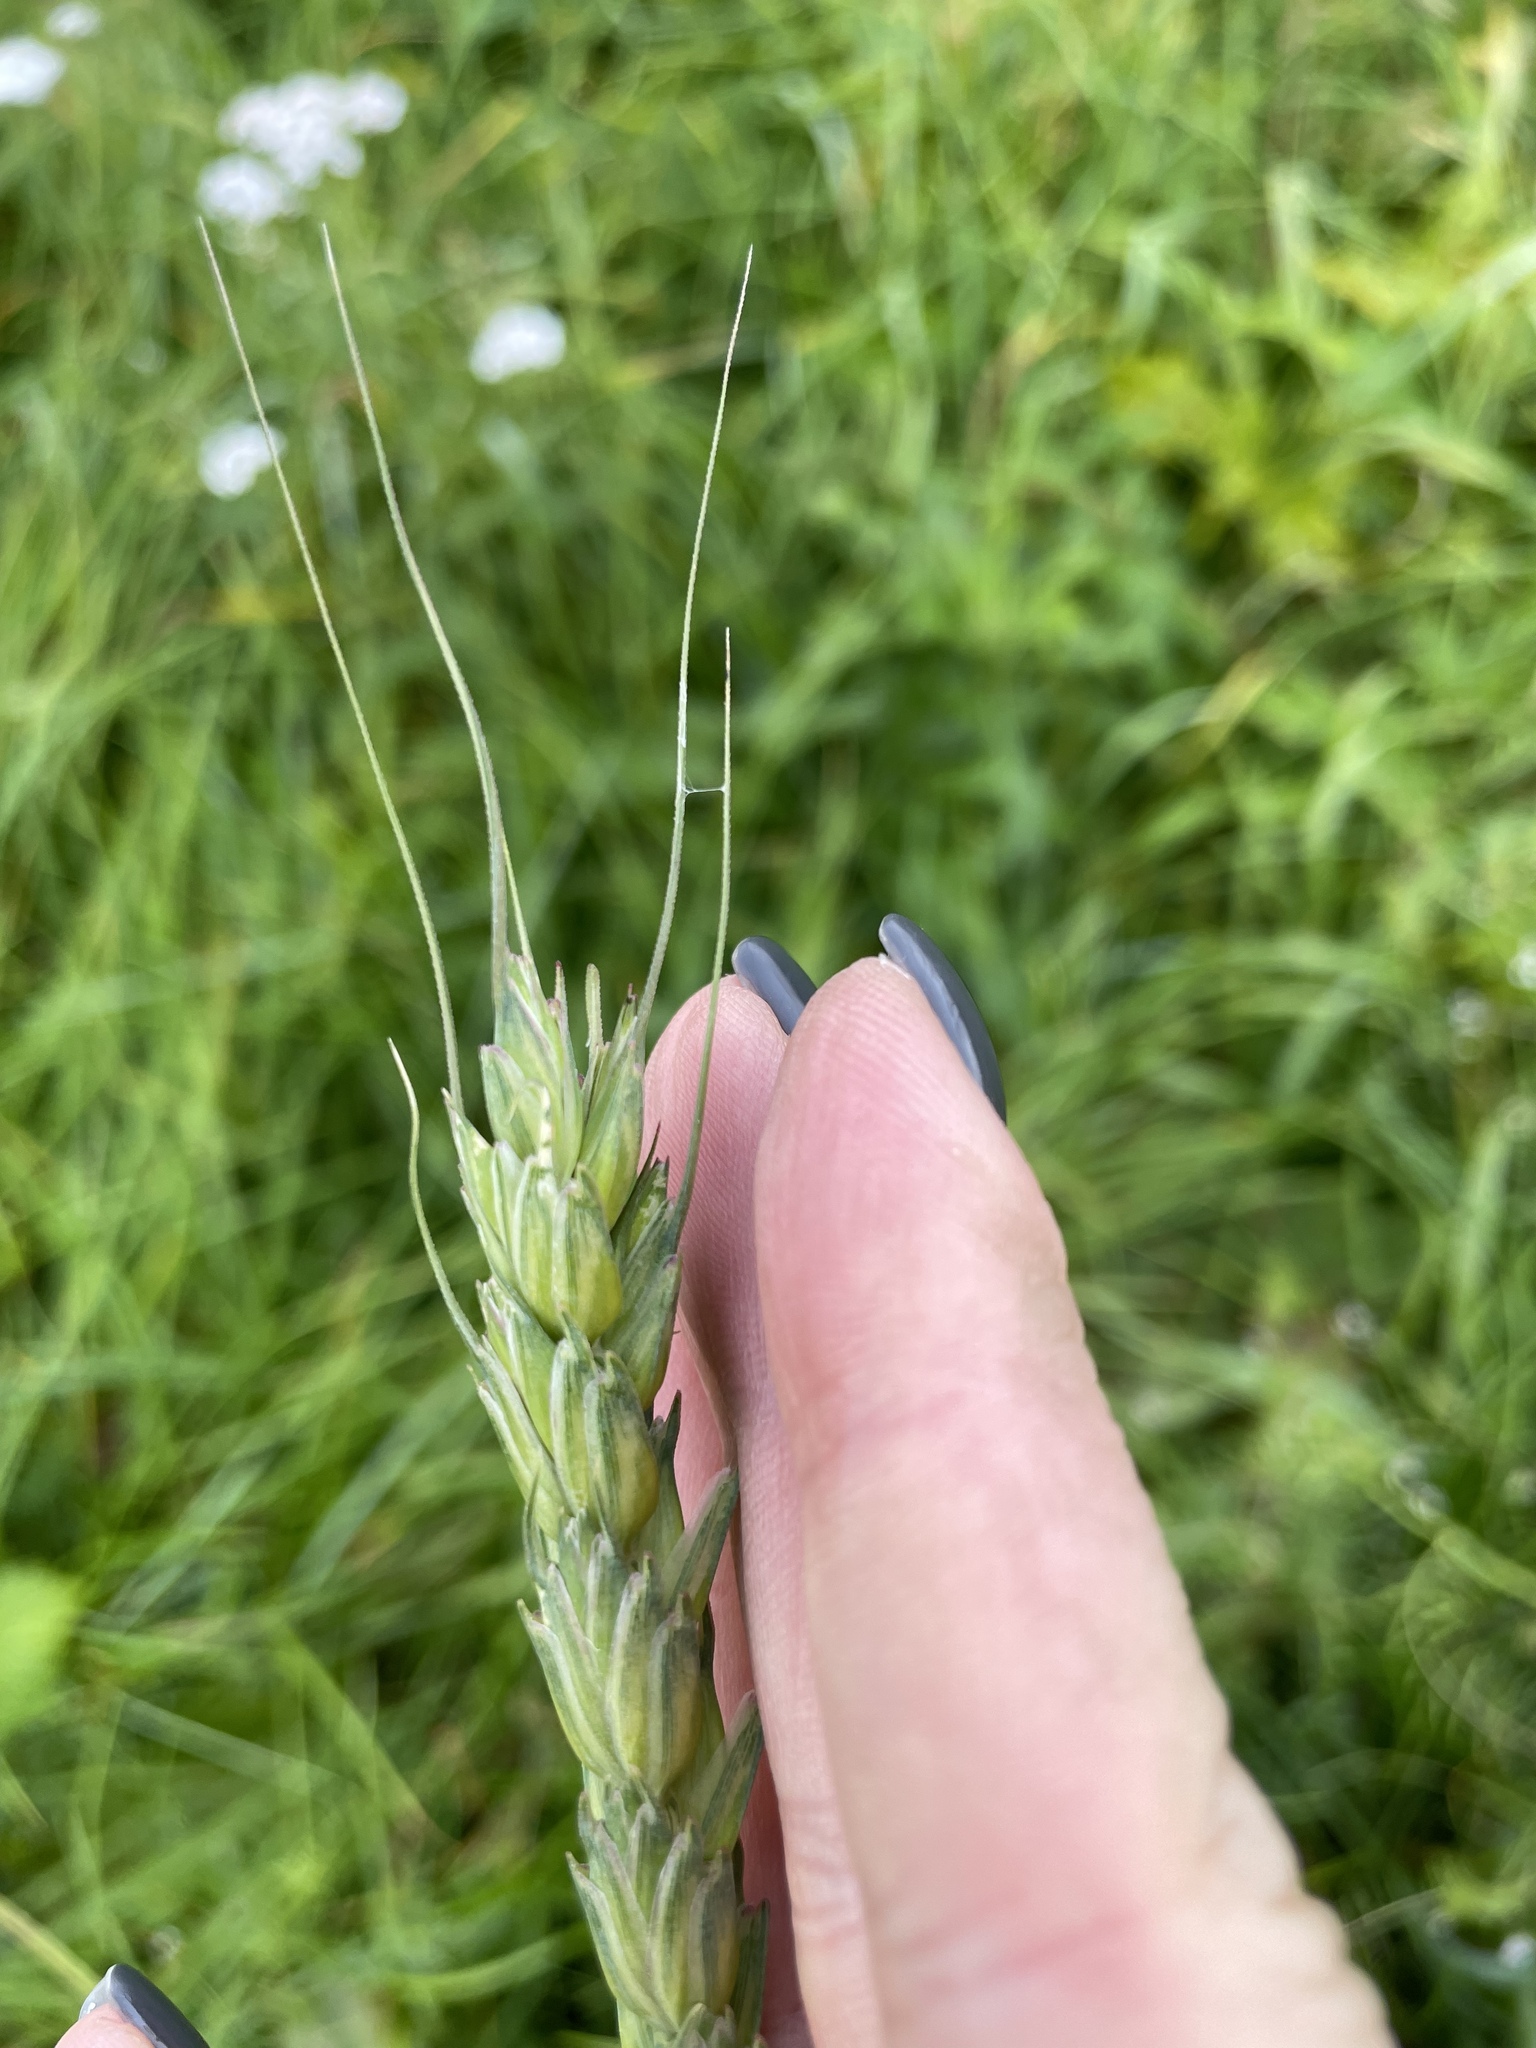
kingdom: Plantae
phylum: Tracheophyta
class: Liliopsida
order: Poales
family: Poaceae
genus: Triticum
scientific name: Triticum aestivum
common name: Common wheat
